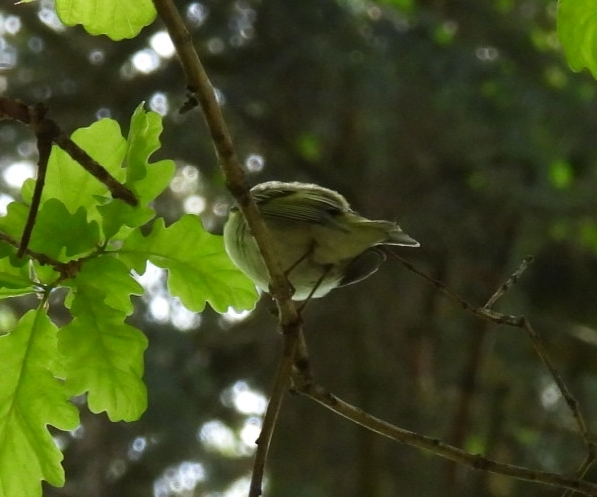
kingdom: Animalia
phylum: Chordata
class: Aves
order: Passeriformes
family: Phylloscopidae
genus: Phylloscopus
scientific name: Phylloscopus sibillatrix
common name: Wood warbler
